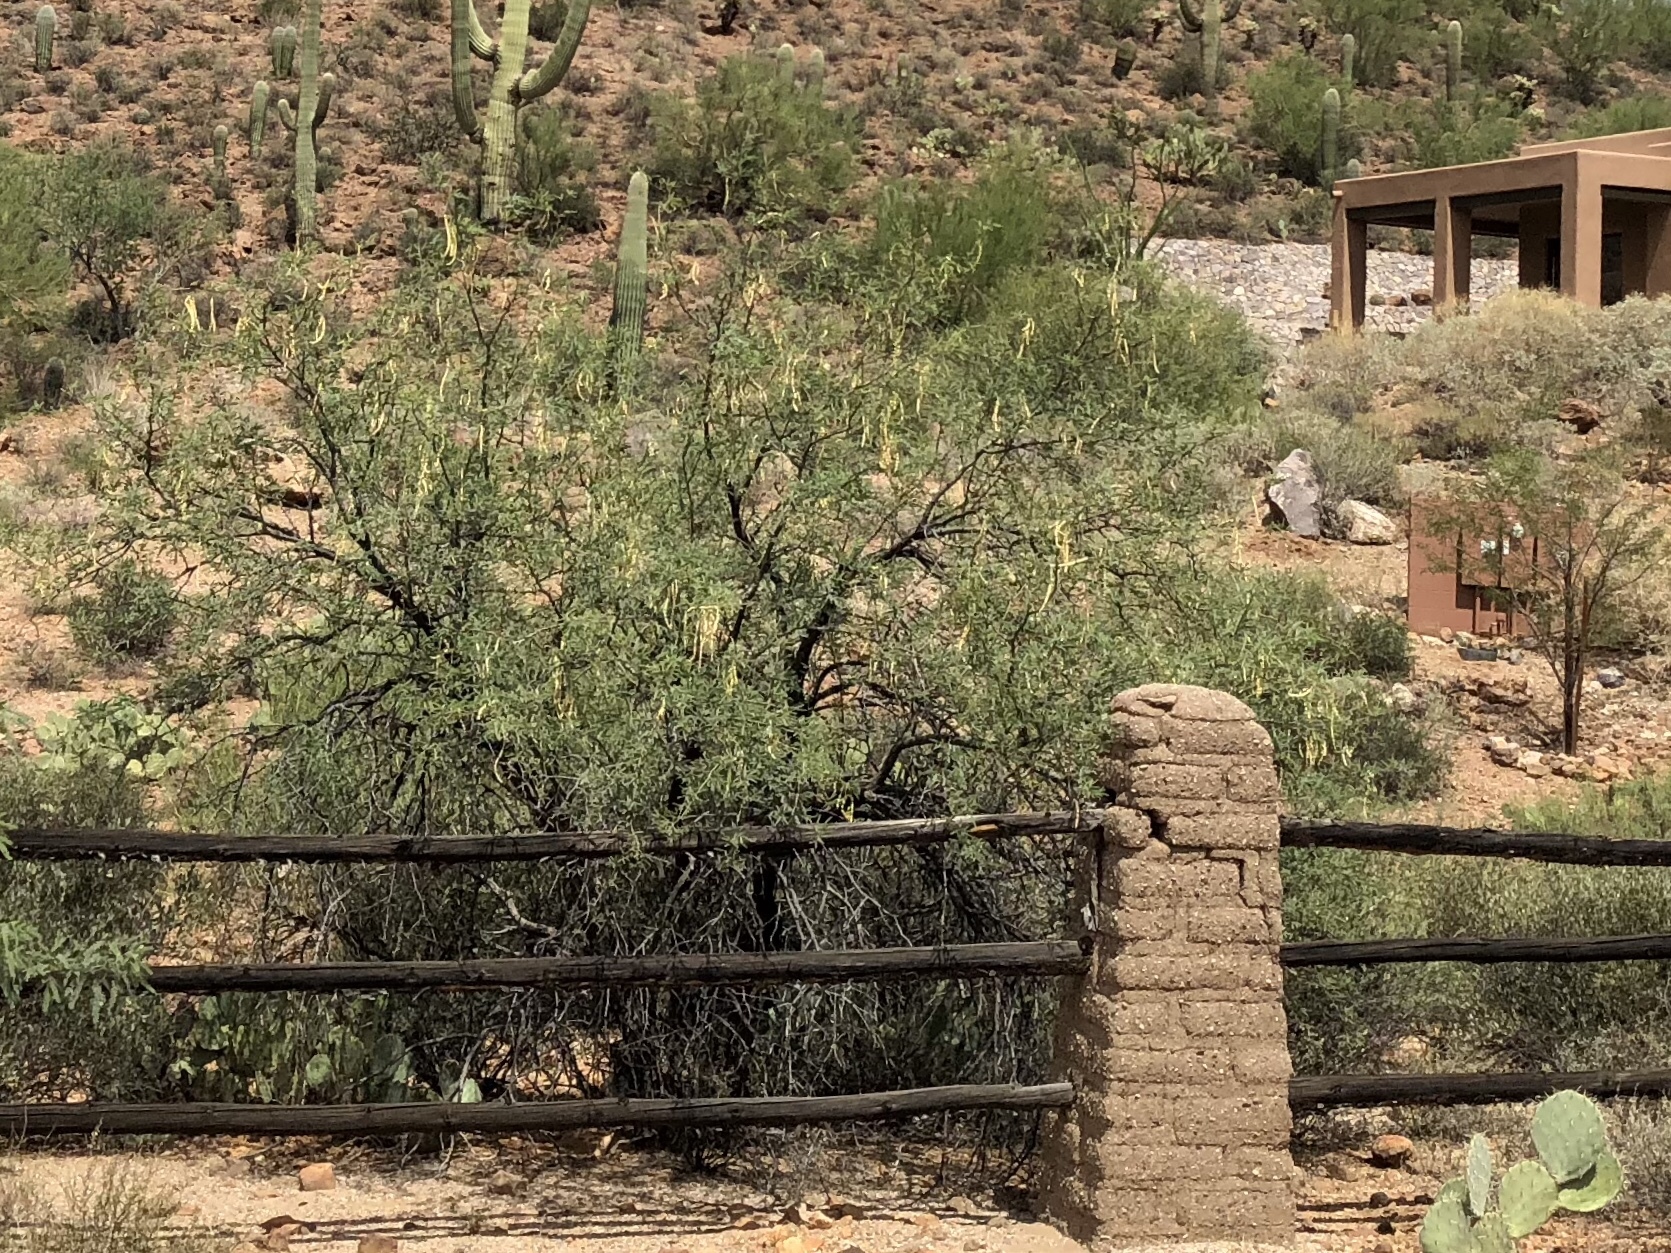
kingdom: Plantae
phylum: Tracheophyta
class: Magnoliopsida
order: Fabales
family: Fabaceae
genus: Prosopis
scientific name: Prosopis velutina
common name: Velvet mesquite
